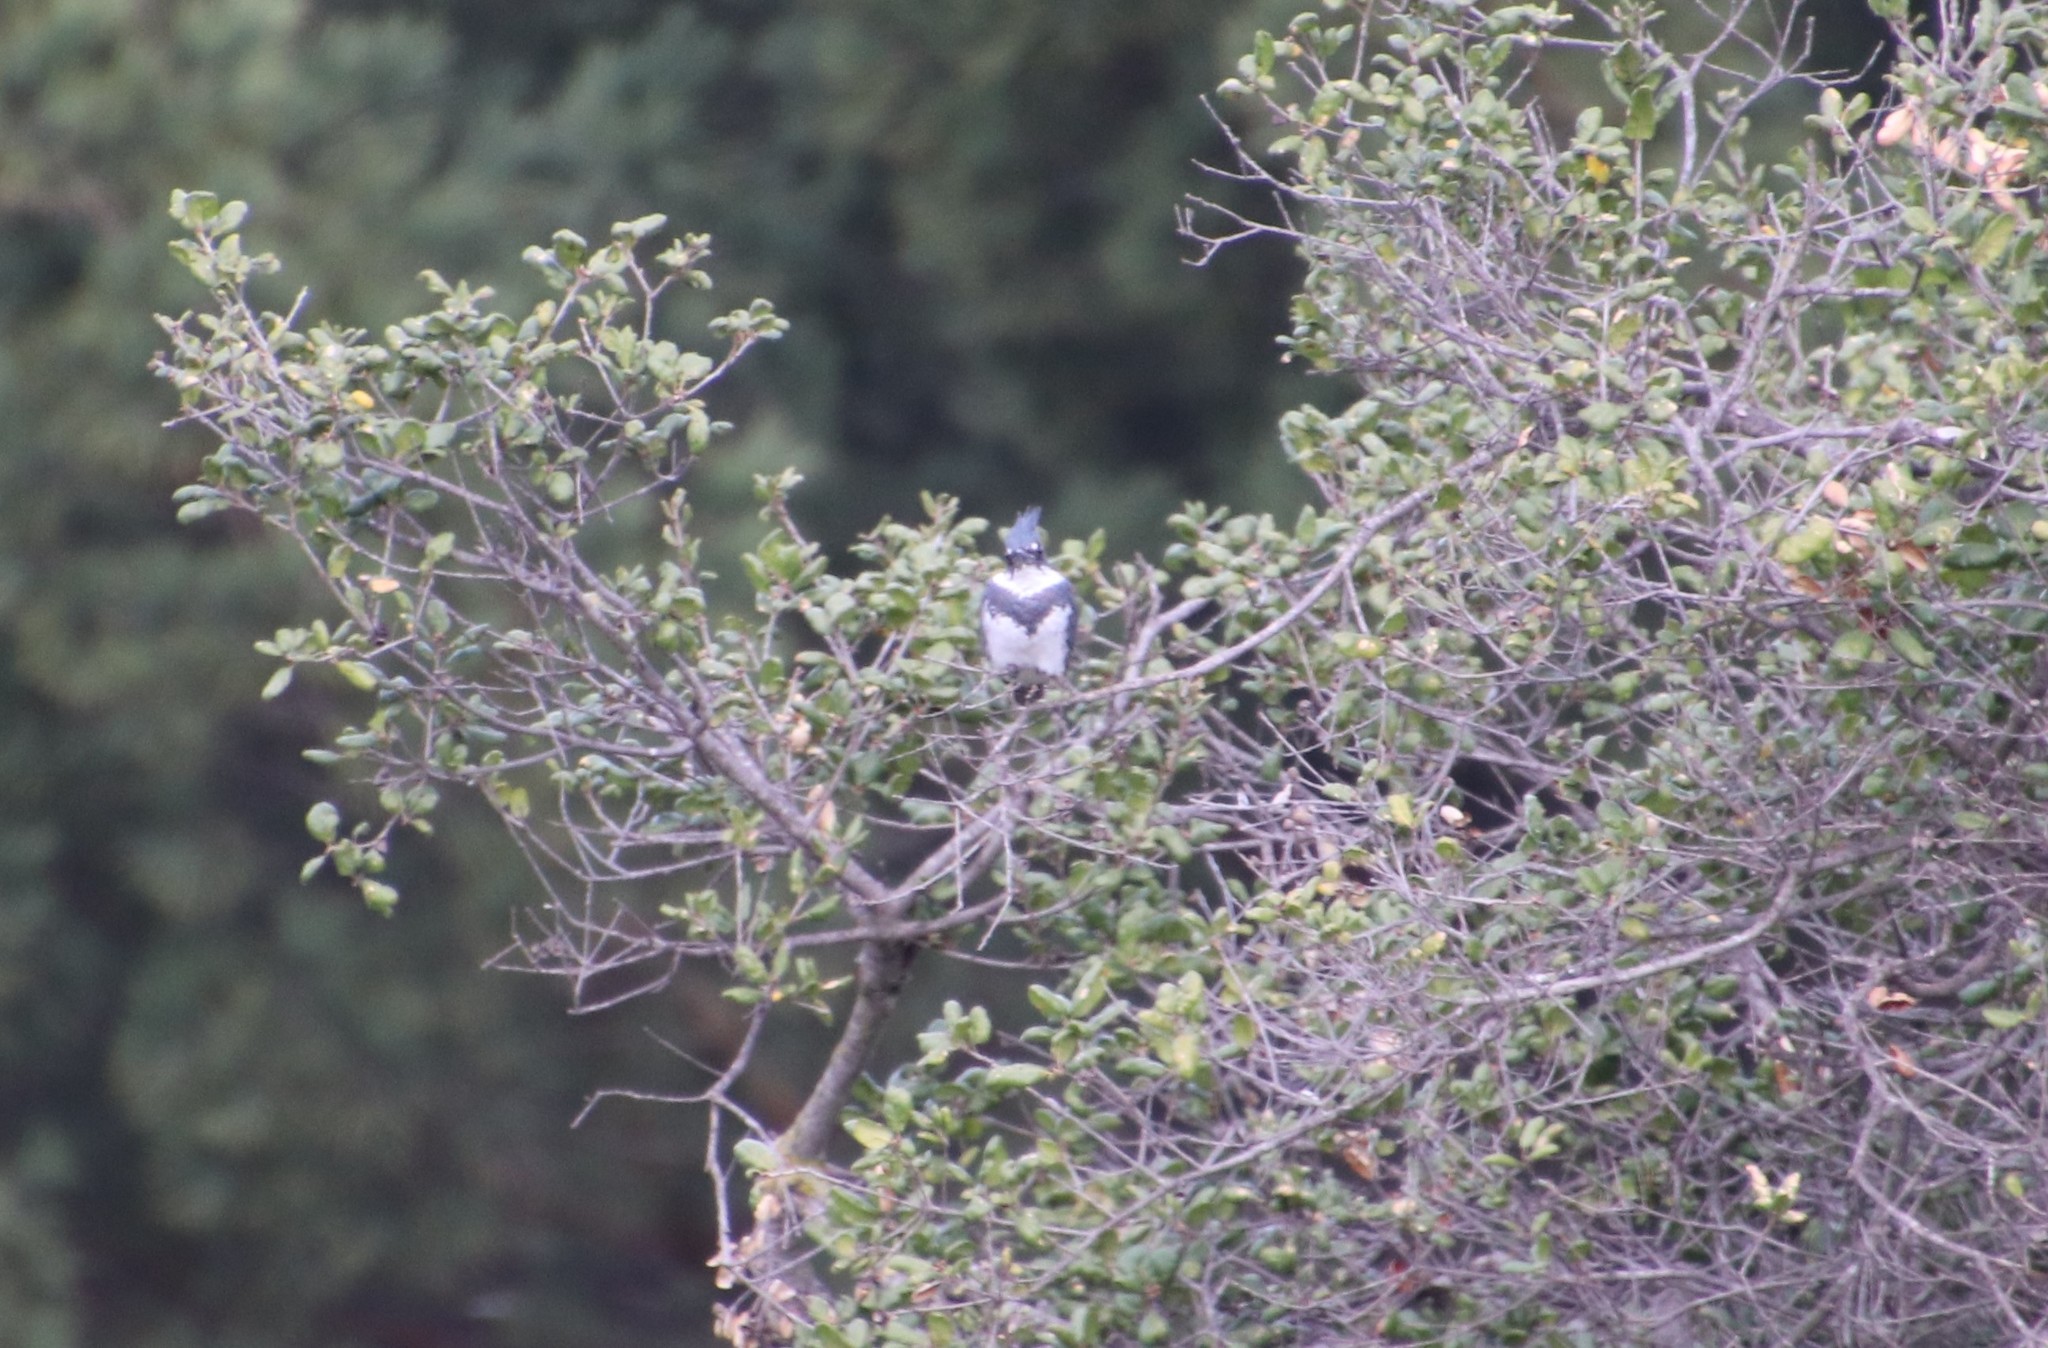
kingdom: Animalia
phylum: Chordata
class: Aves
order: Coraciiformes
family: Alcedinidae
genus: Megaceryle
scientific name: Megaceryle alcyon
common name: Belted kingfisher
